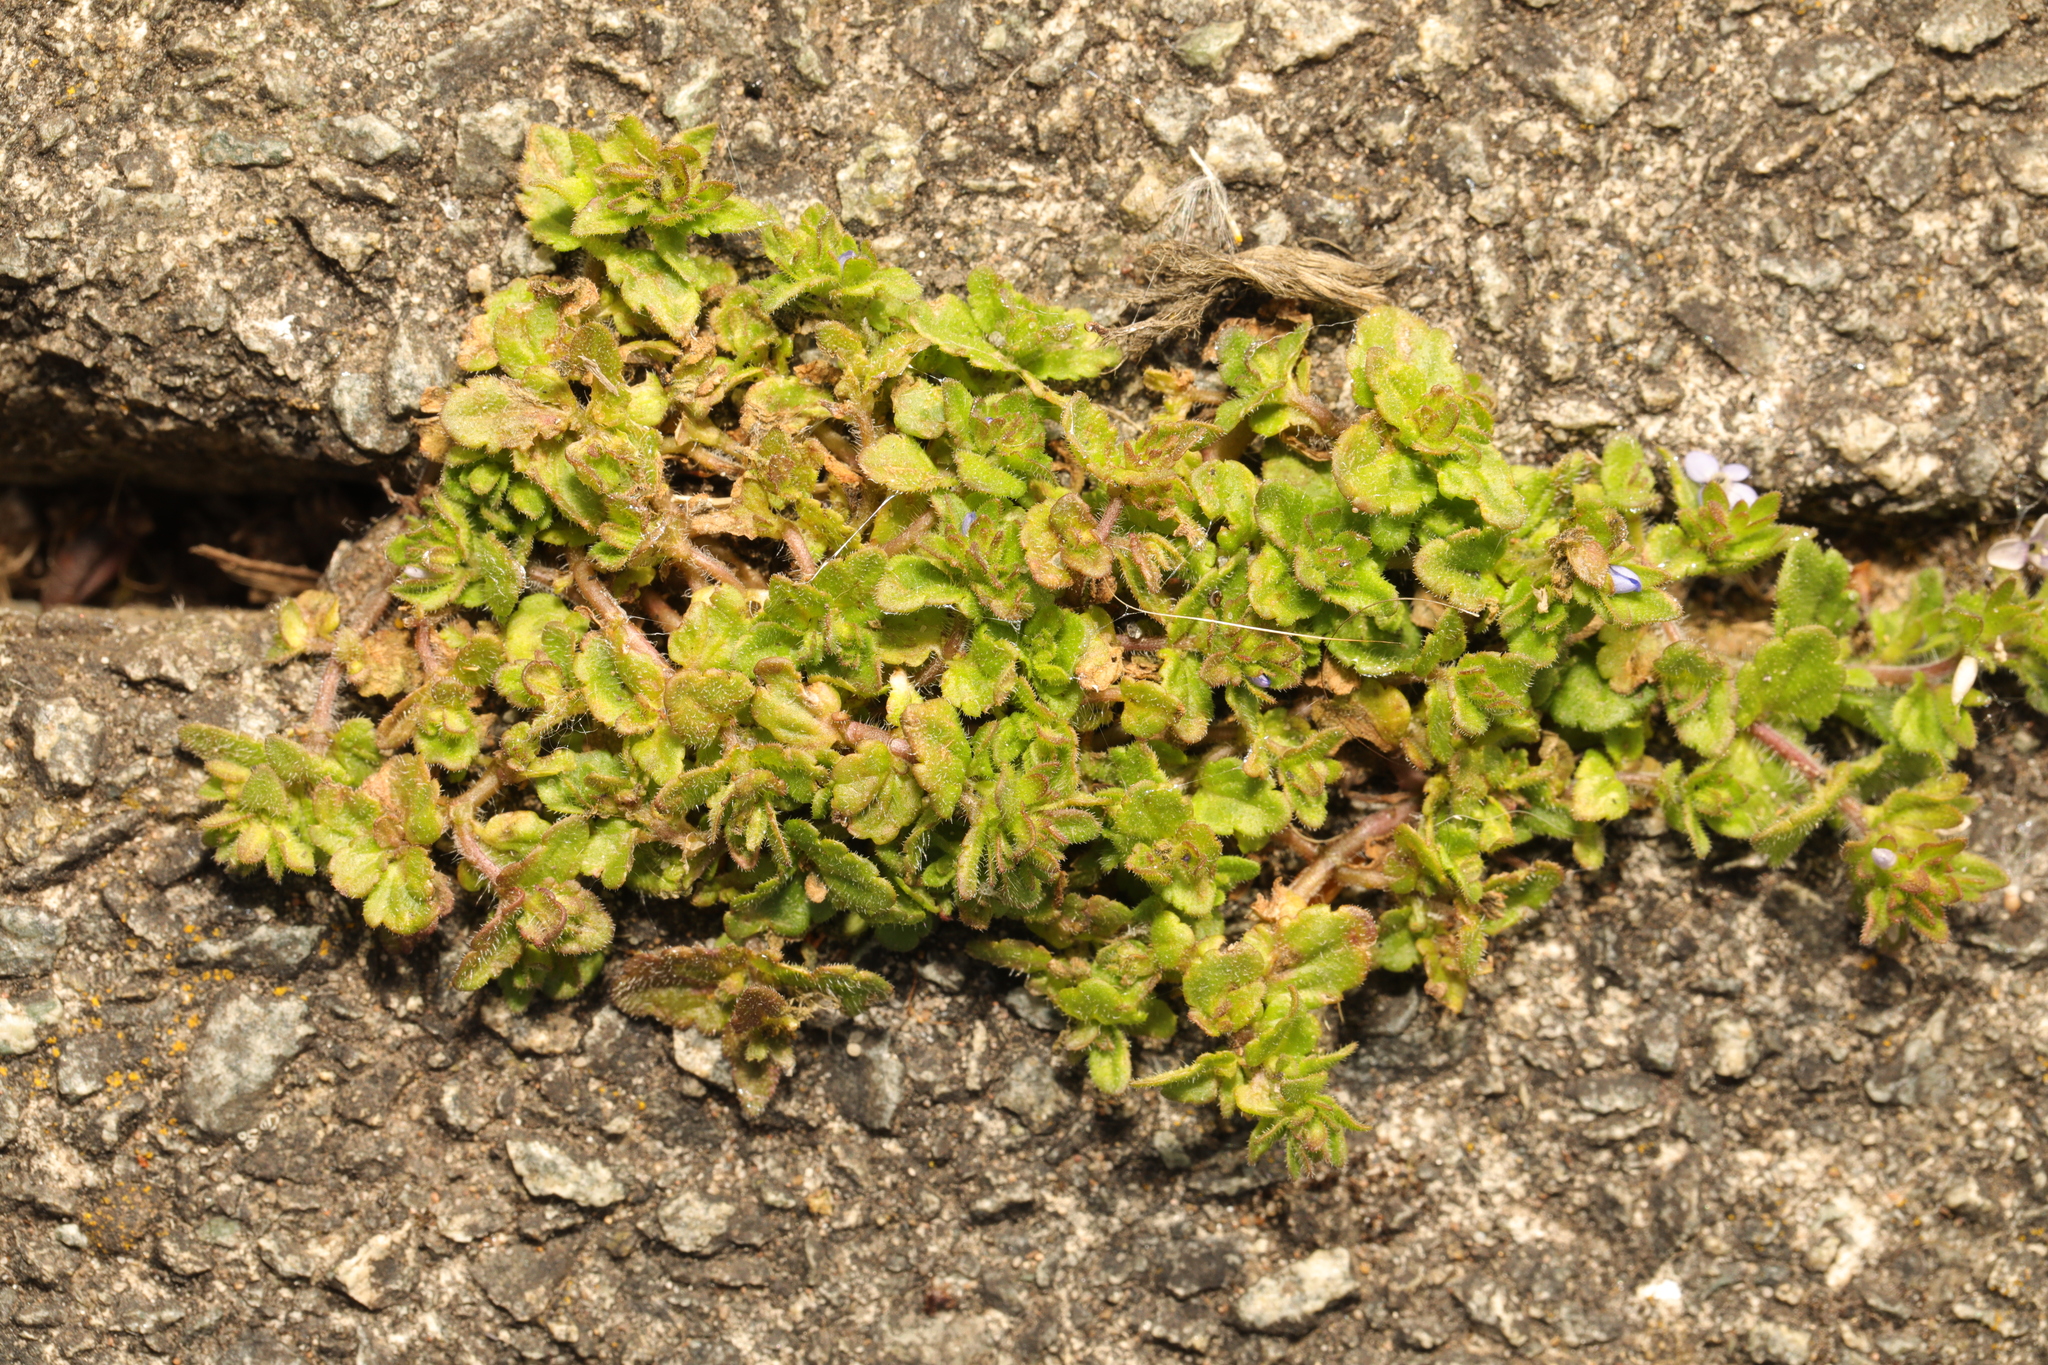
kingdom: Plantae
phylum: Tracheophyta
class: Magnoliopsida
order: Lamiales
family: Plantaginaceae
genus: Veronica
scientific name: Veronica arvensis
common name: Corn speedwell
